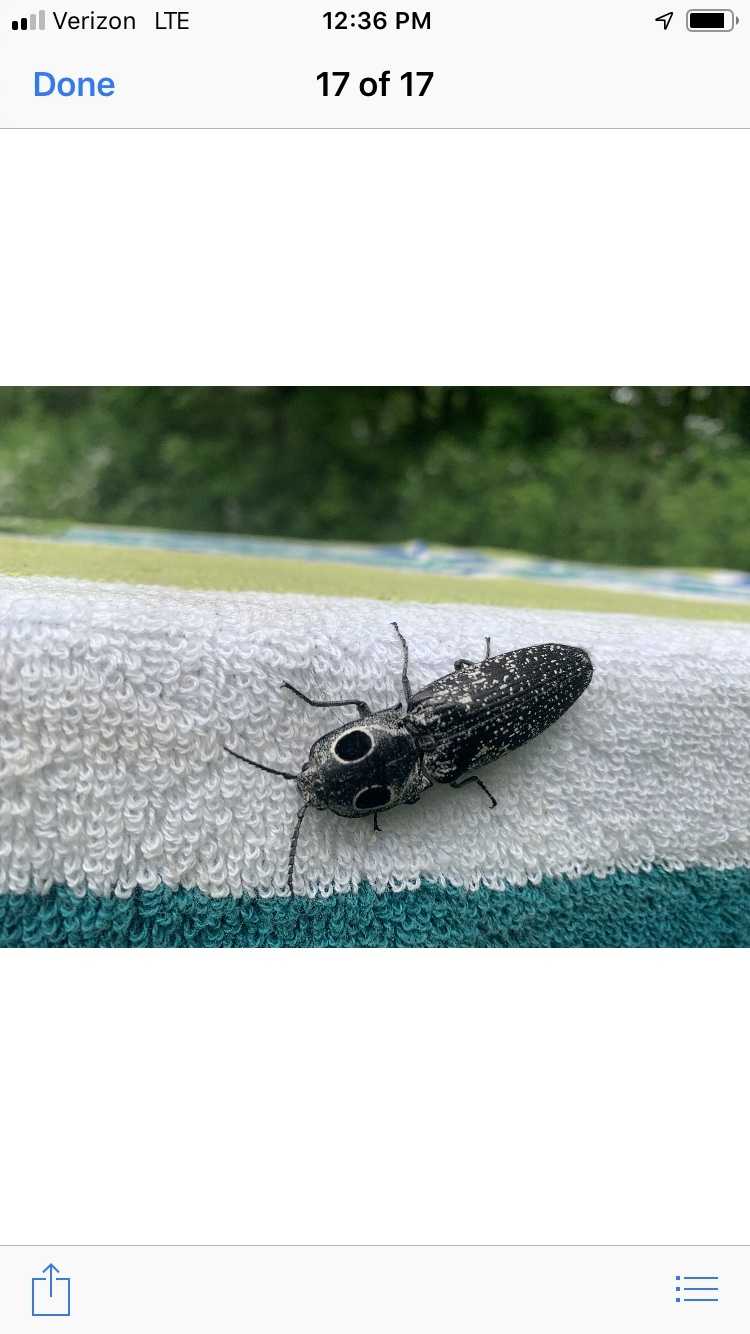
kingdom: Animalia
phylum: Arthropoda
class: Insecta
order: Coleoptera
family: Elateridae
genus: Alaus
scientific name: Alaus oculatus
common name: Eastern eyed click beetle
